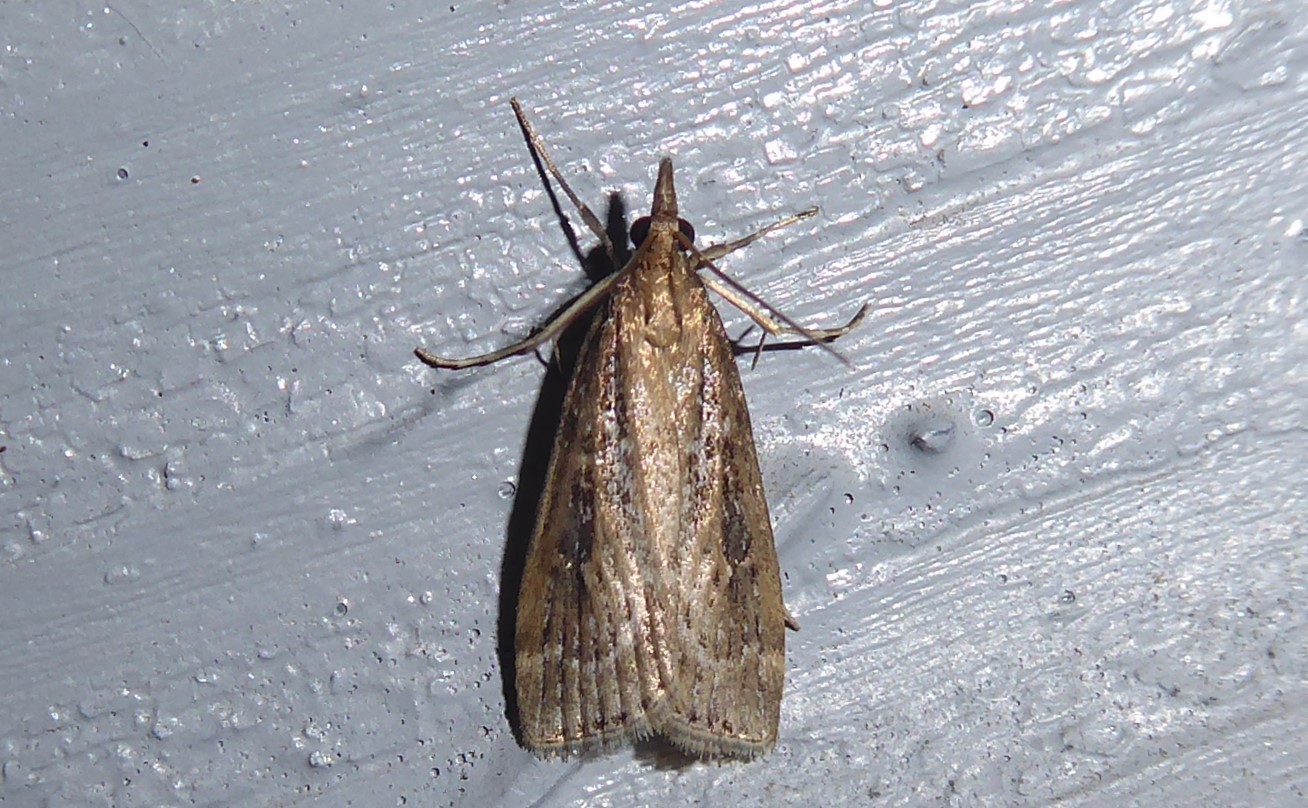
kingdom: Animalia
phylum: Arthropoda
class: Insecta
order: Lepidoptera
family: Crambidae
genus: Eudonia
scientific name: Eudonia octophora
